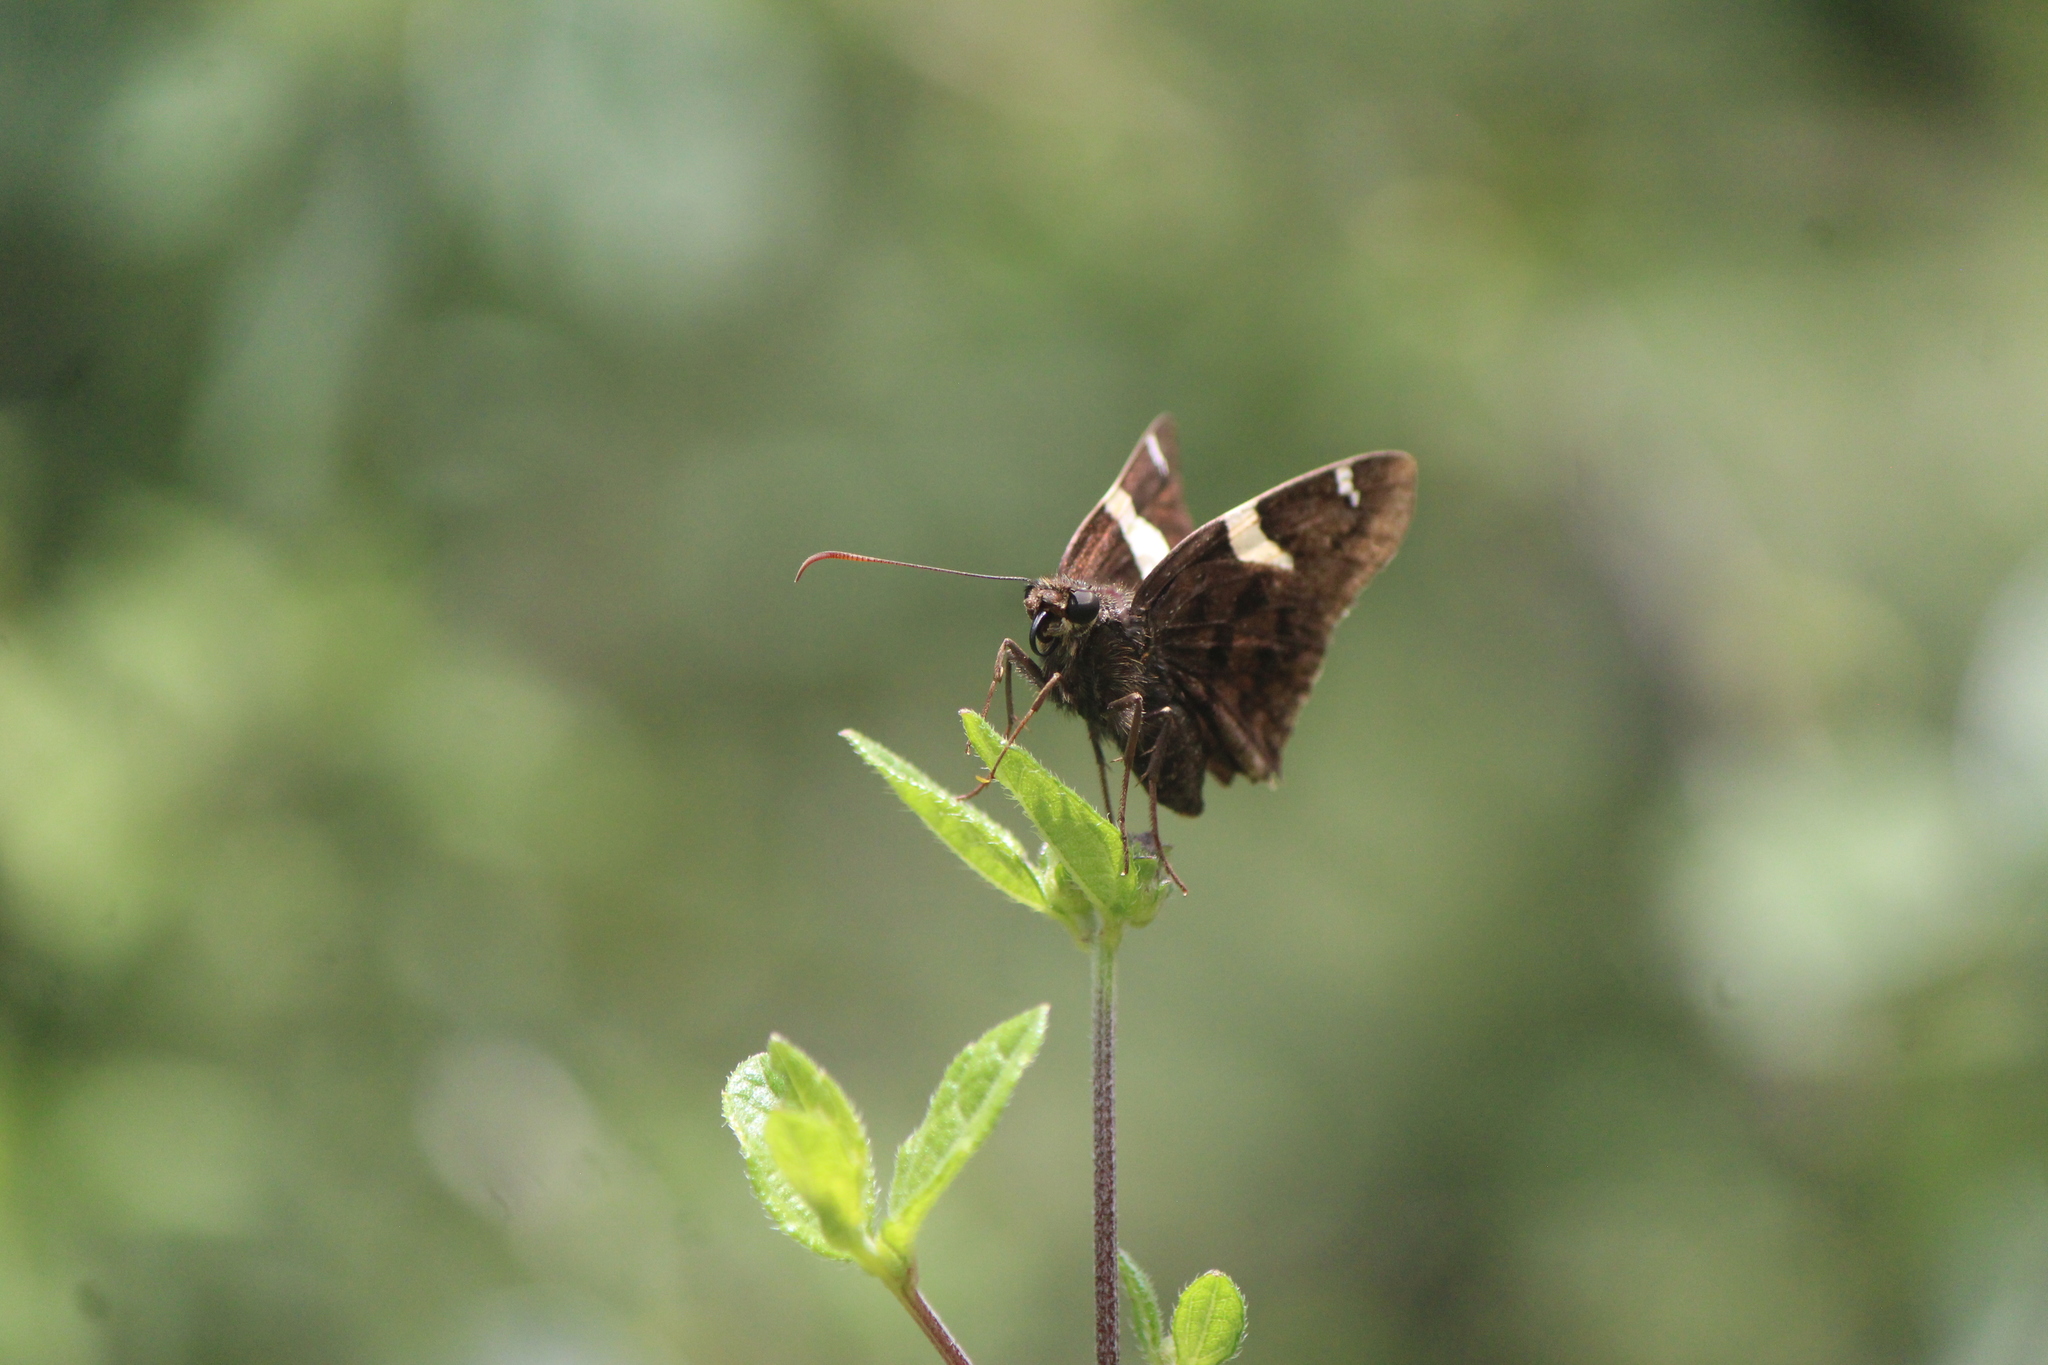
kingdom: Animalia
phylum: Arthropoda
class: Arachnida
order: Scorpiones
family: Bothriuridae
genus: Telegonus
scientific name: Telegonus cellus
